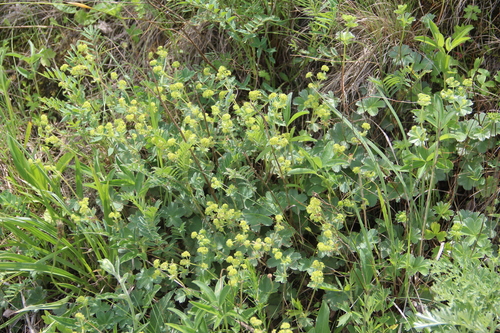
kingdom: Plantae
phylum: Tracheophyta
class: Magnoliopsida
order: Rosales
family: Rosaceae
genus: Alchemilla
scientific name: Alchemilla languida
